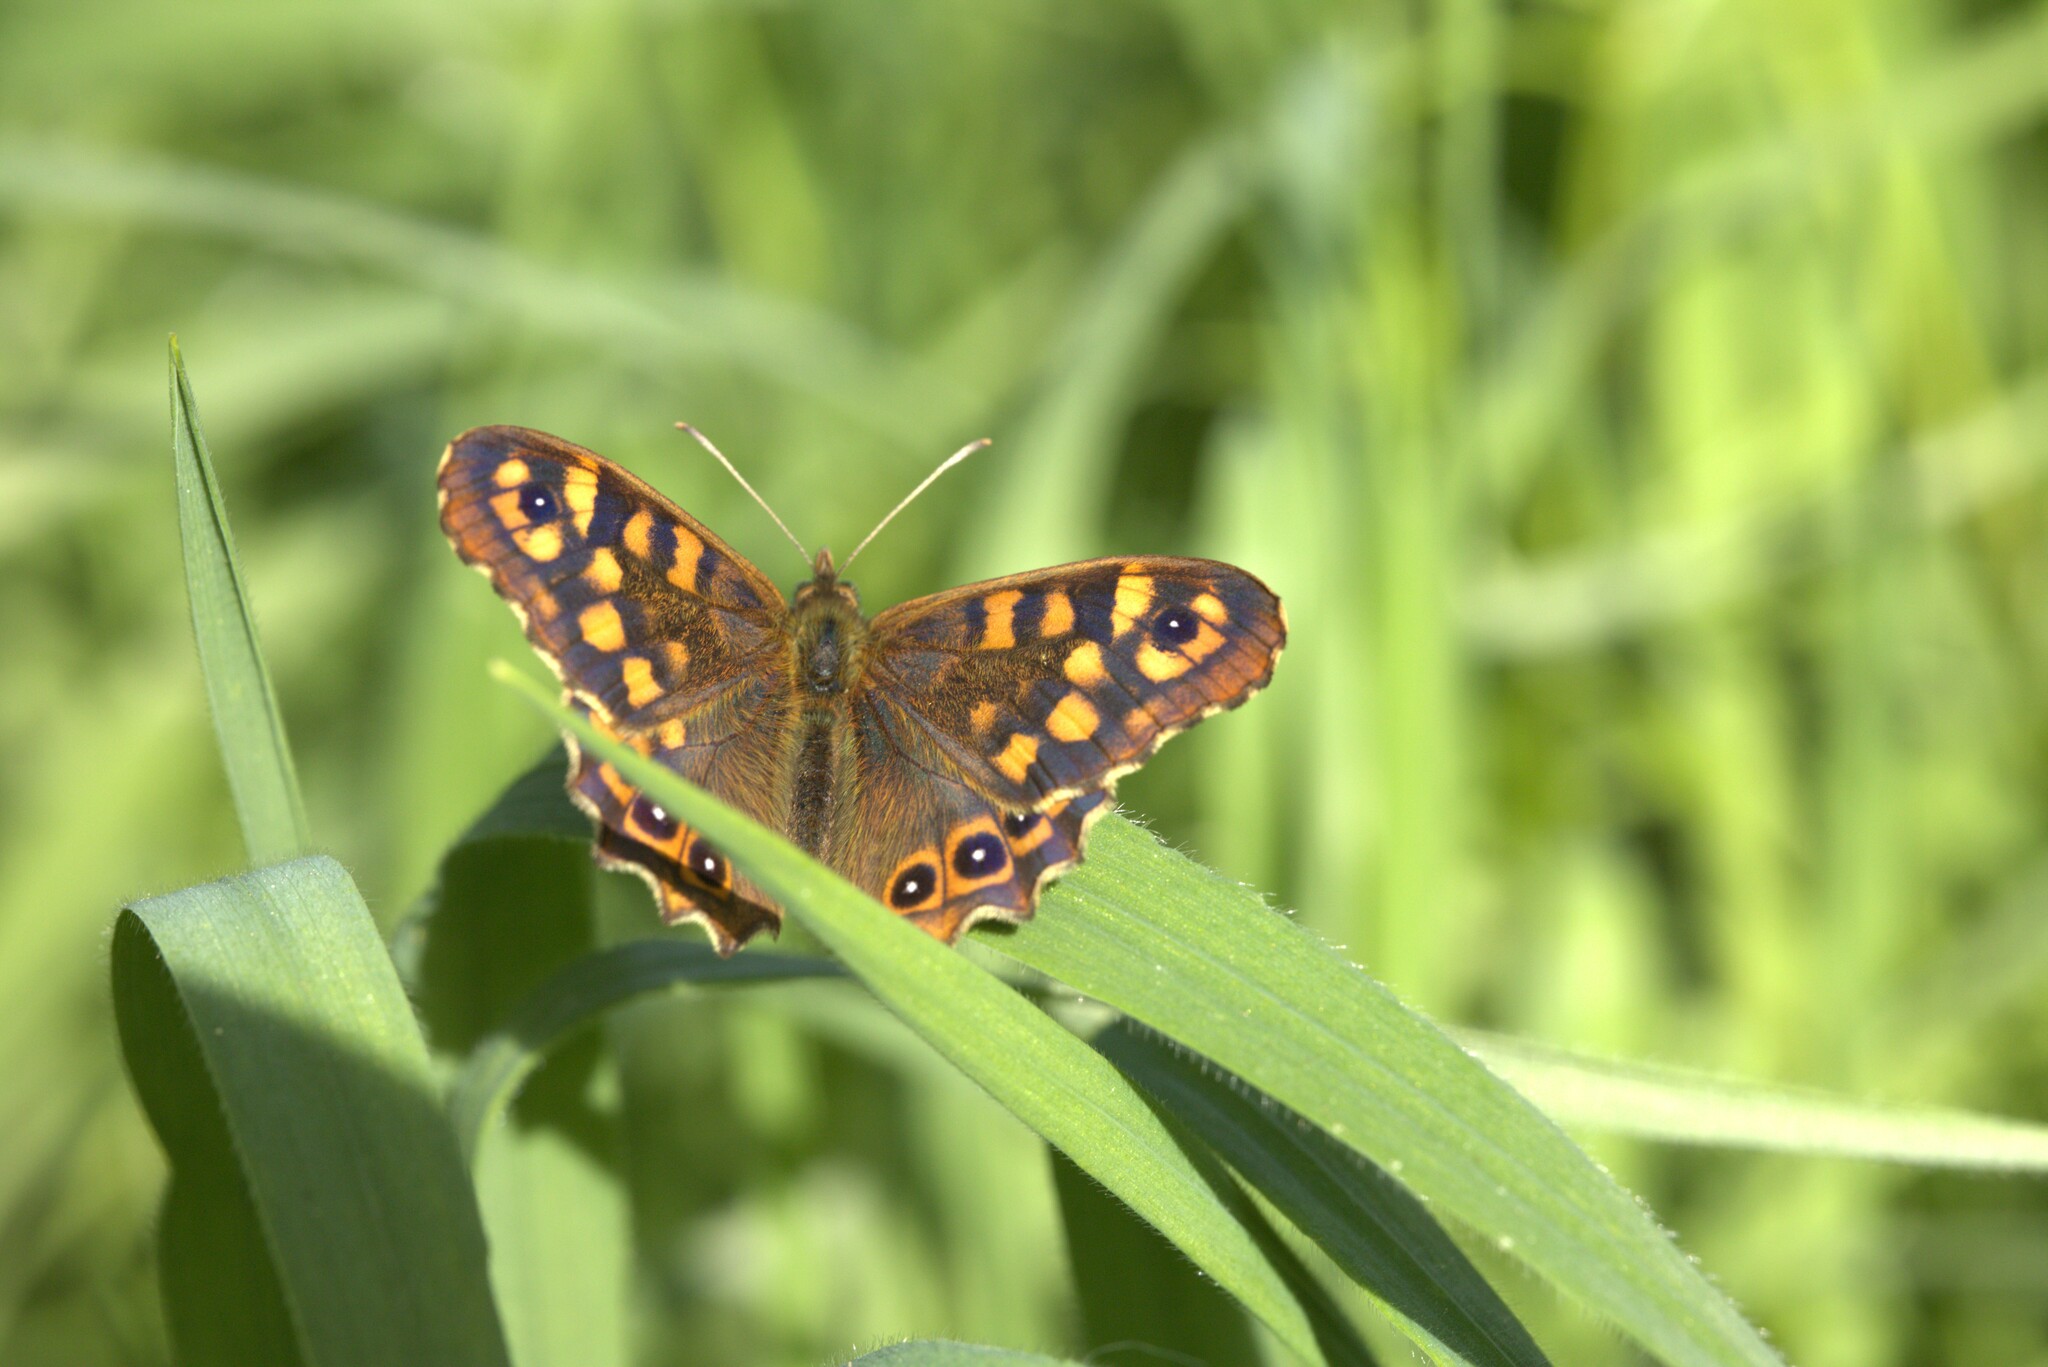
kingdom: Animalia
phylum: Arthropoda
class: Insecta
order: Lepidoptera
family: Nymphalidae
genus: Pararge
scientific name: Pararge aegeria
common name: Speckled wood
